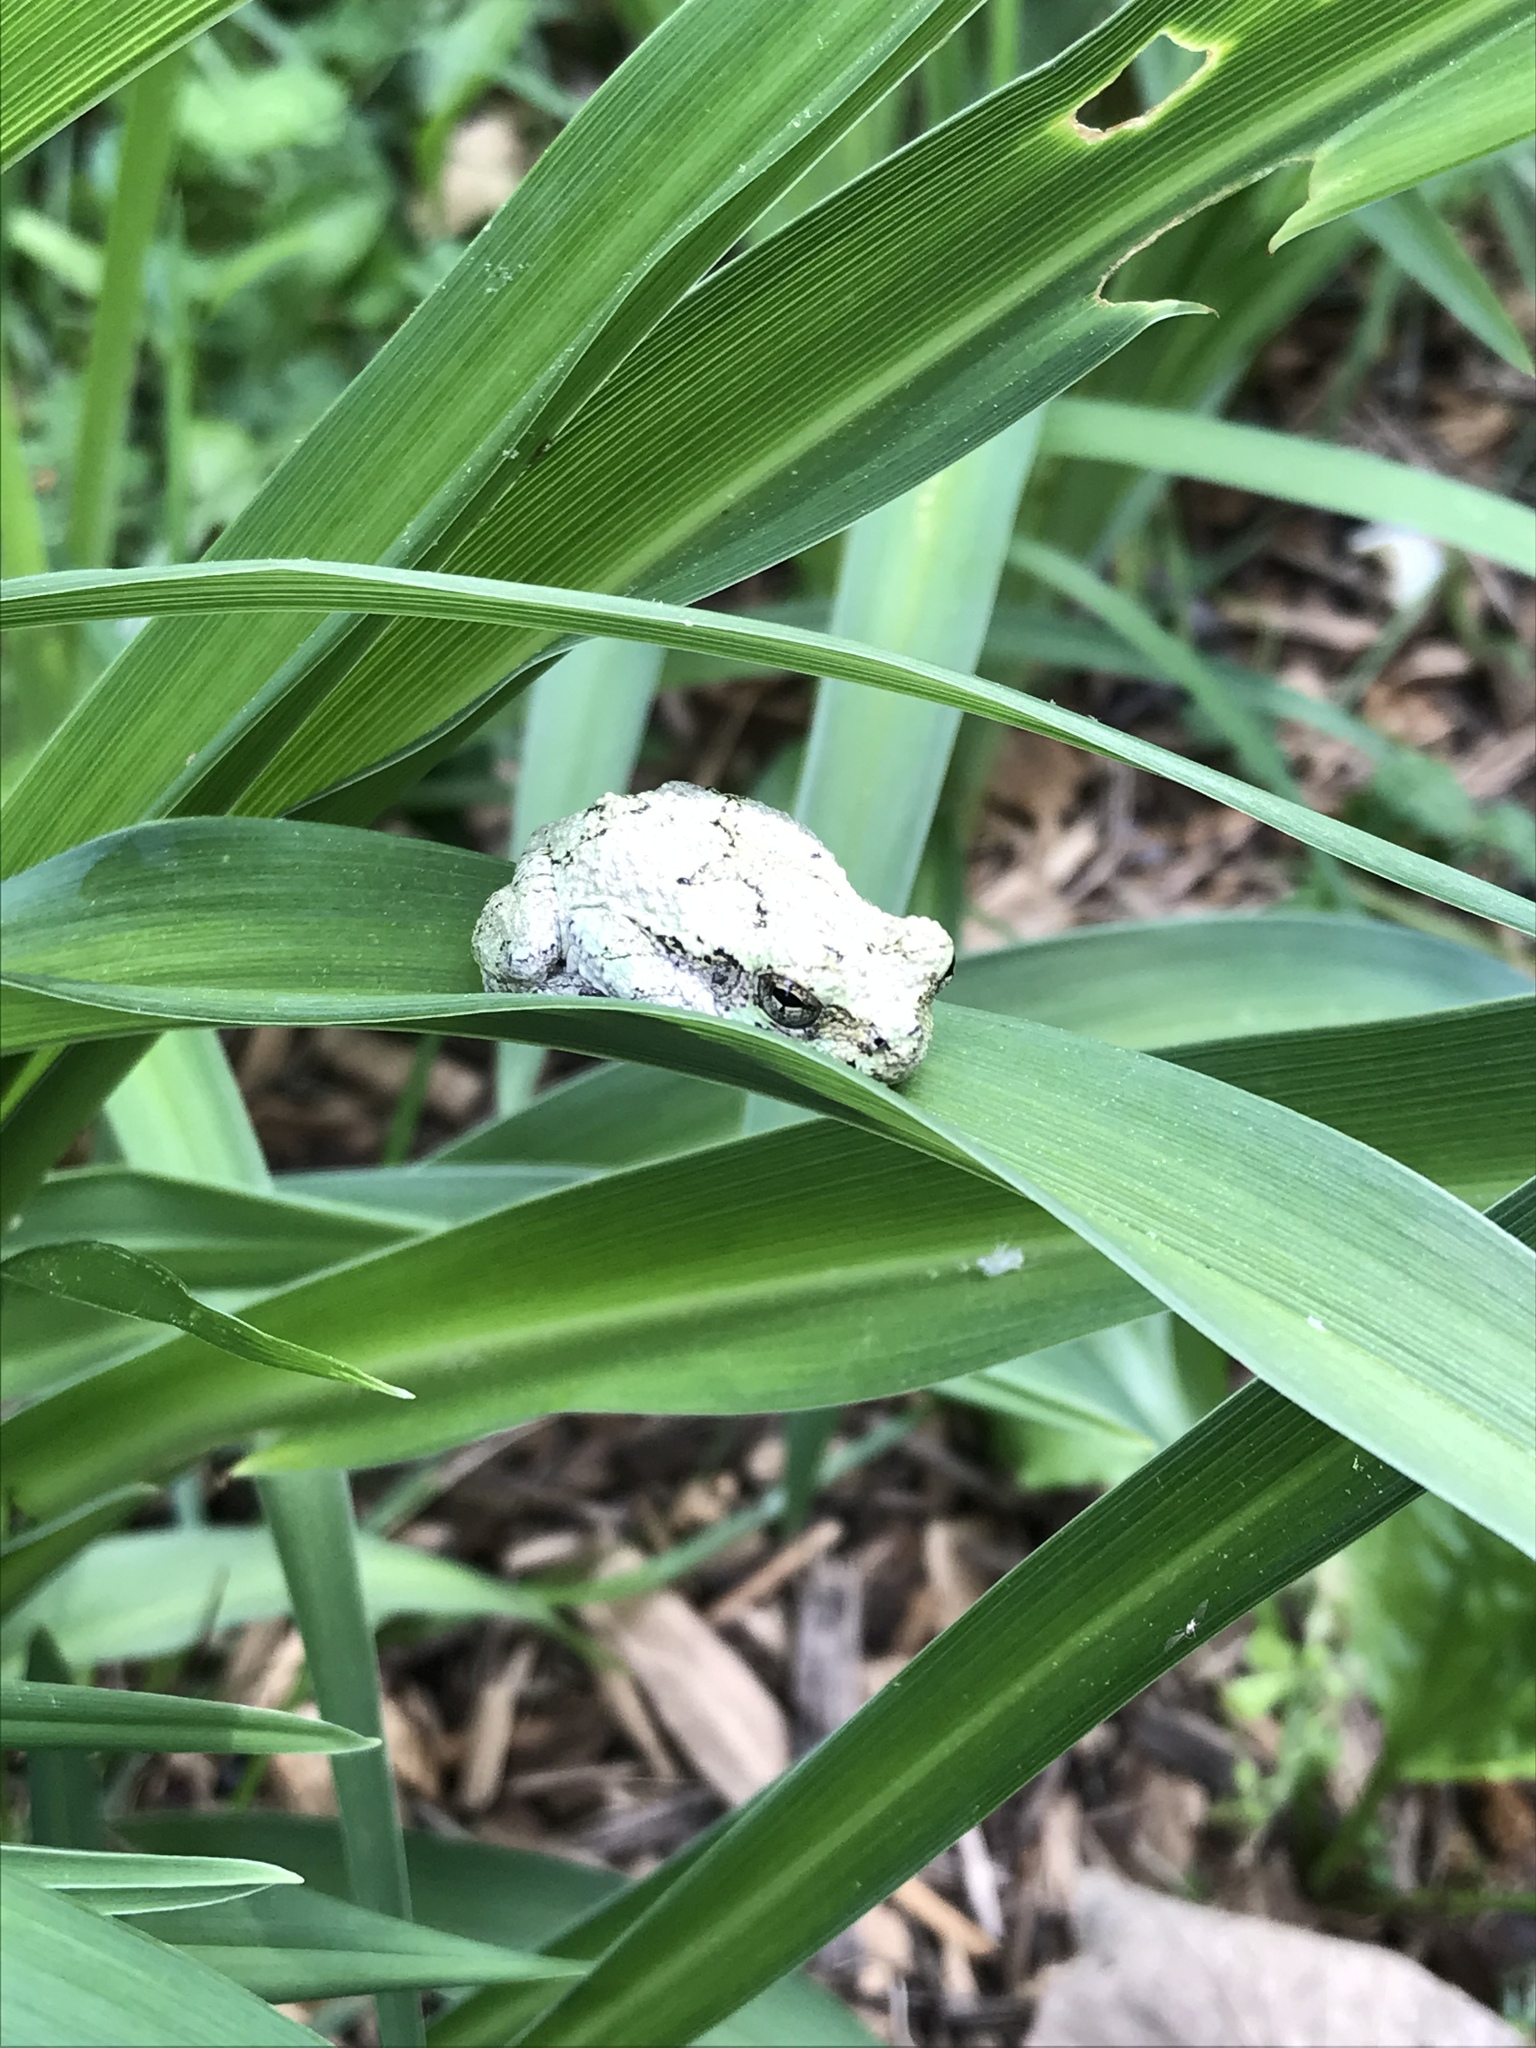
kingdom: Animalia
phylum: Chordata
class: Amphibia
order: Anura
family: Hylidae
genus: Dryophytes
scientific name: Dryophytes chrysoscelis
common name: Cope's gray treefrog
